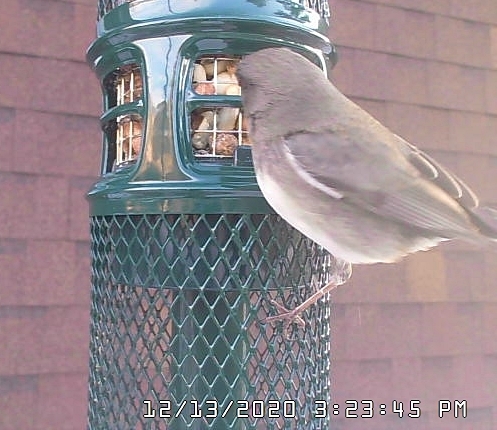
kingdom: Animalia
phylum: Chordata
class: Aves
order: Passeriformes
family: Passerellidae
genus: Junco
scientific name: Junco hyemalis
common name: Dark-eyed junco
